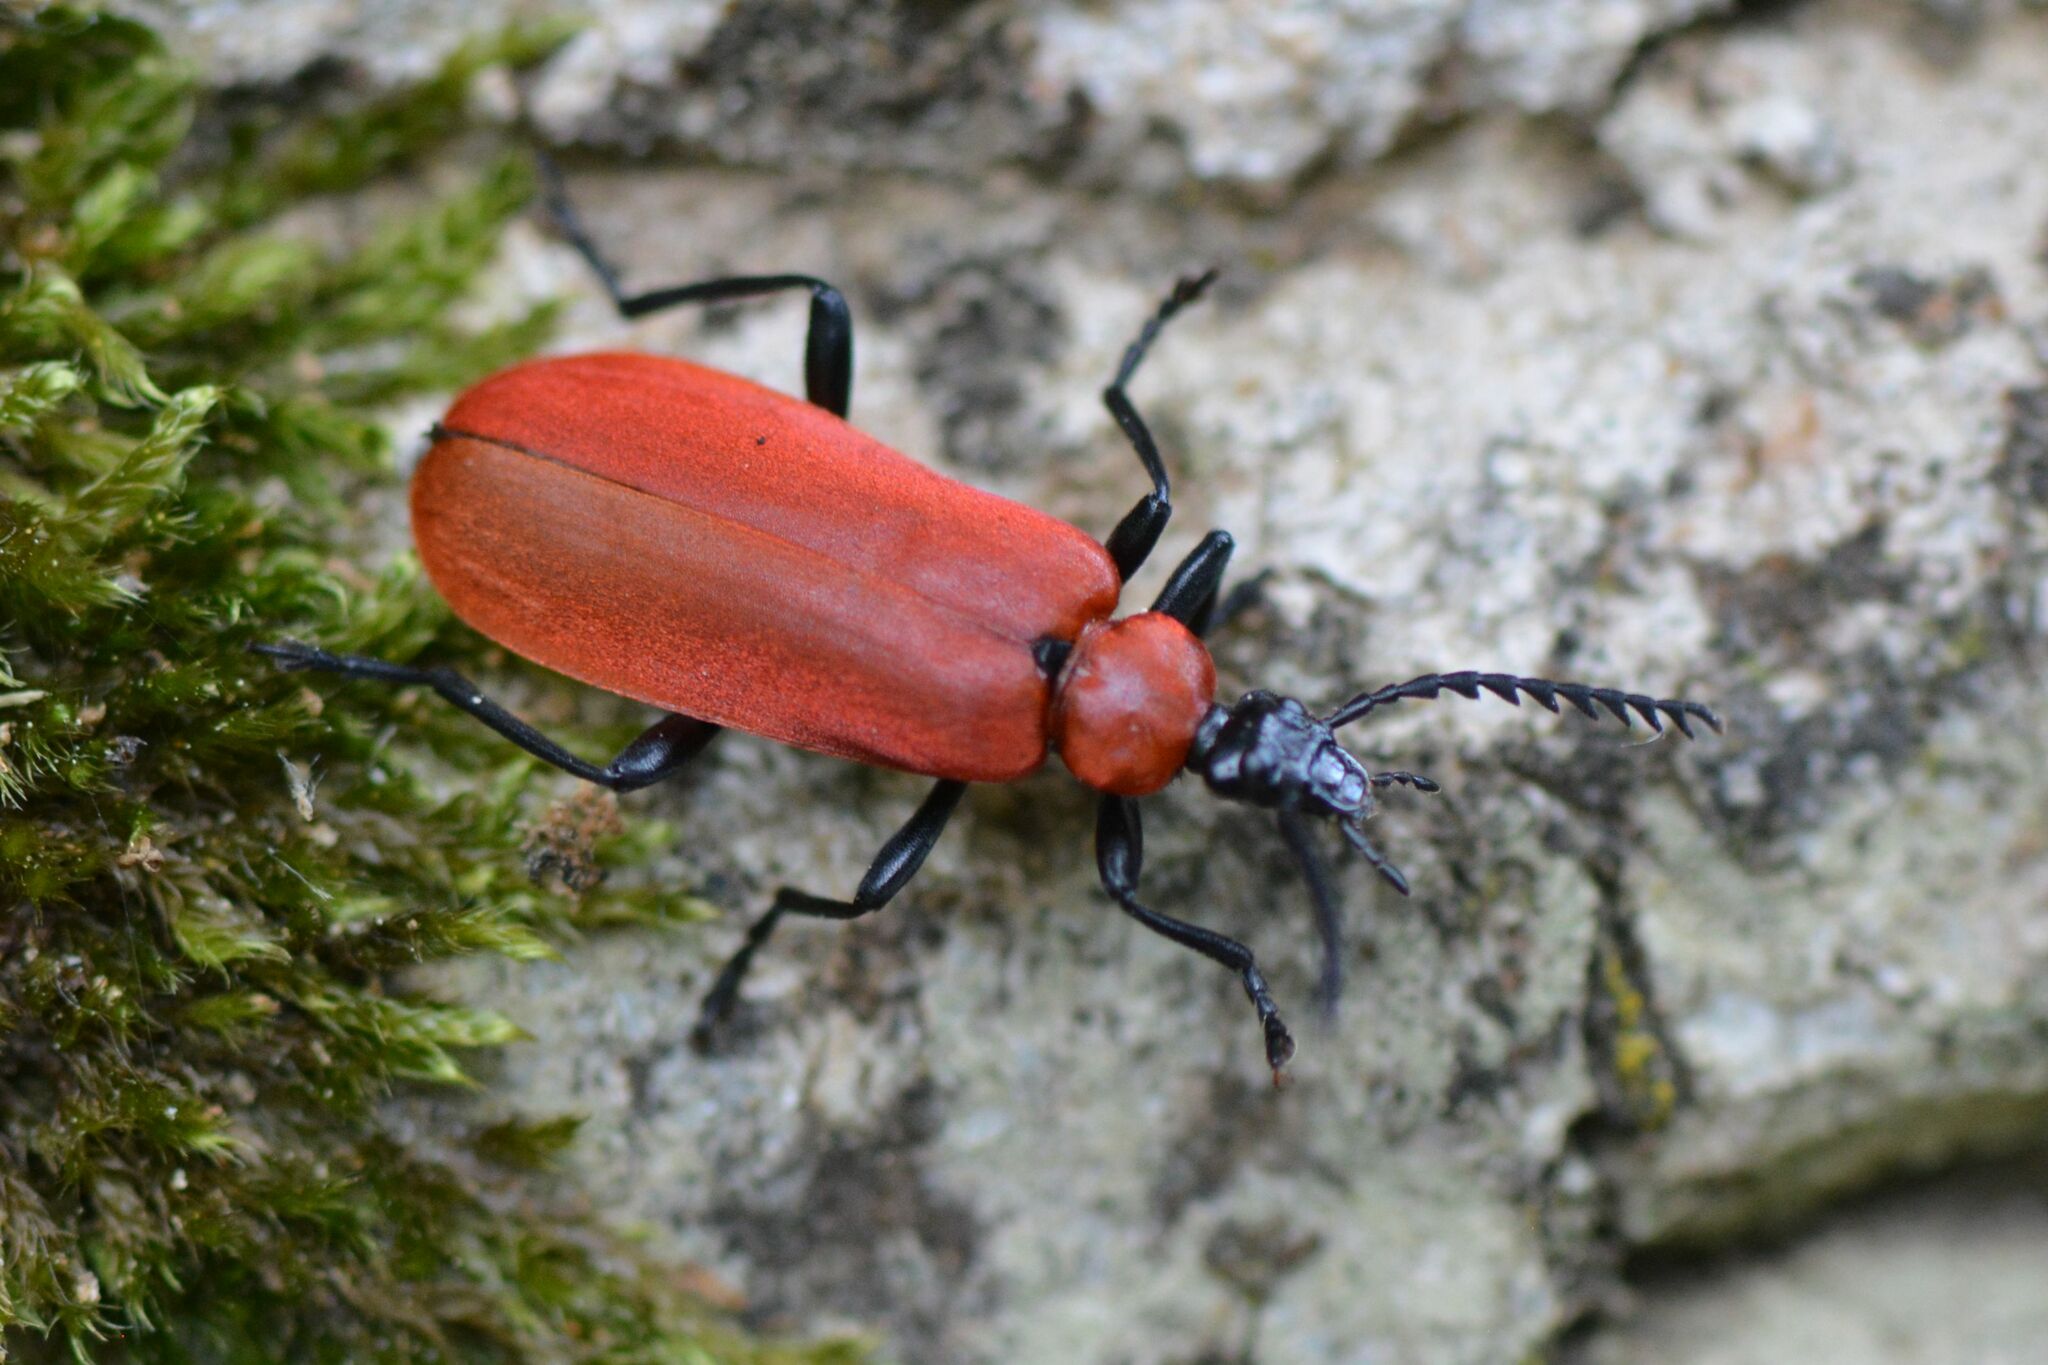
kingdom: Animalia
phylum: Arthropoda
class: Insecta
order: Coleoptera
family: Pyrochroidae
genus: Pyrochroa
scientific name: Pyrochroa coccinea
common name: Black-headed cardinal beetle
